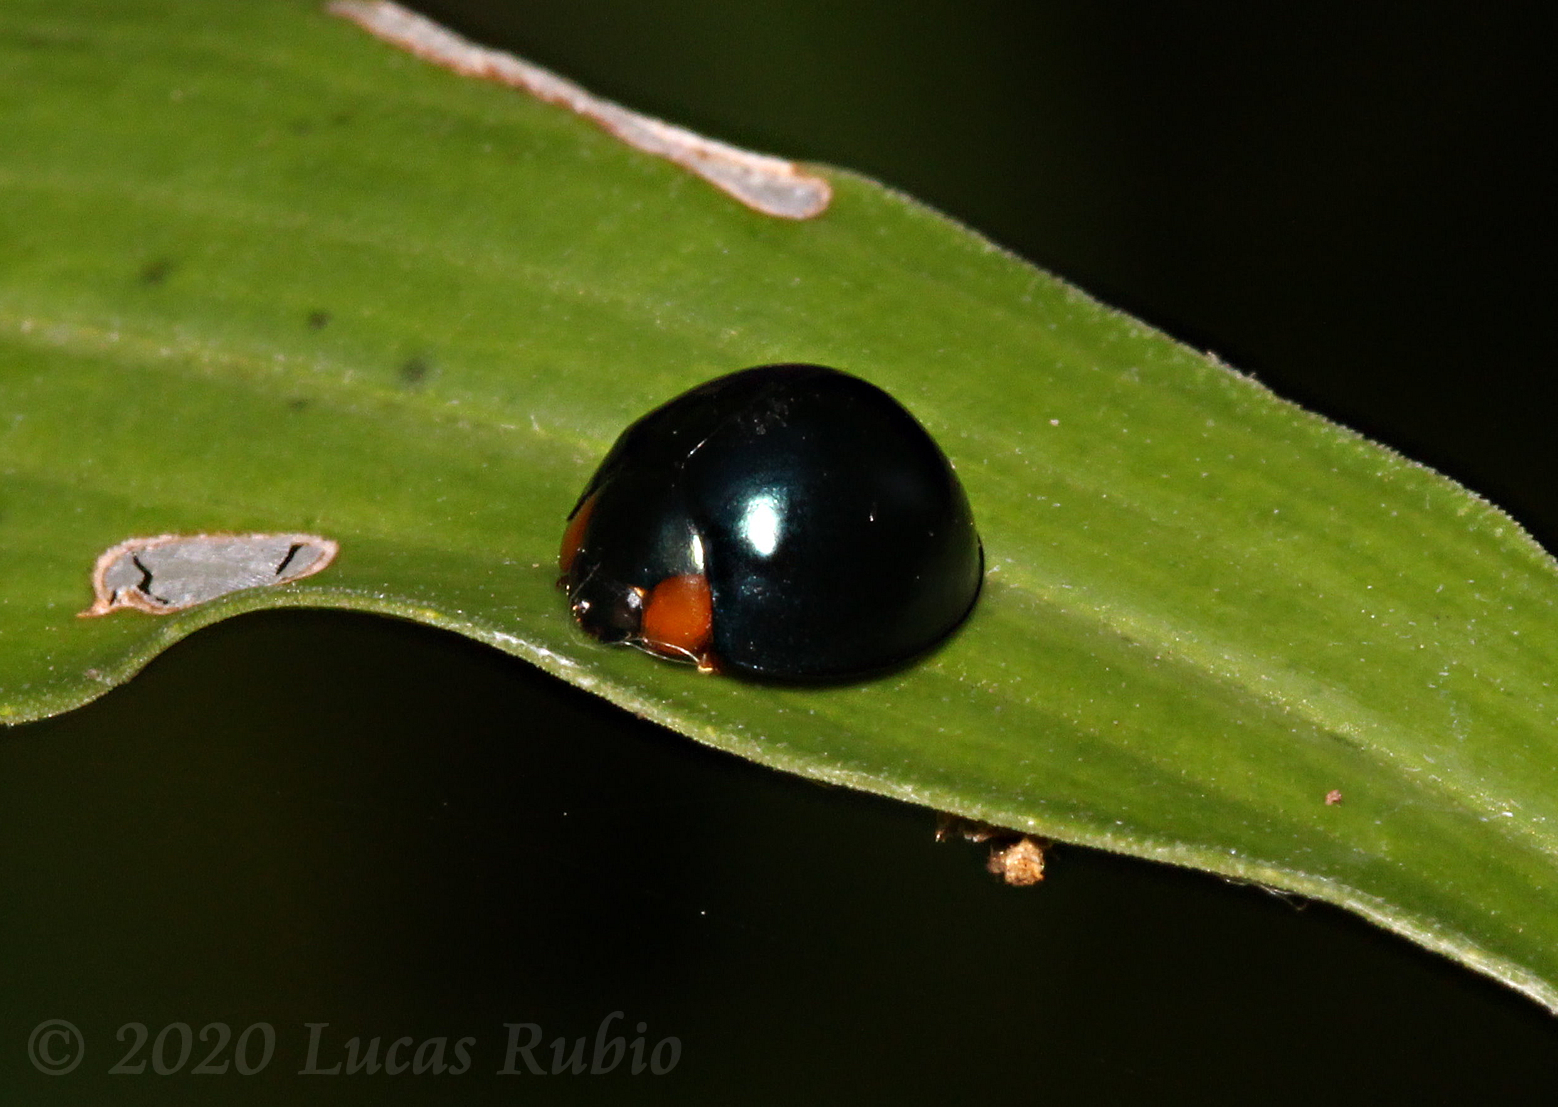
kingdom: Animalia
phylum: Arthropoda
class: Insecta
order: Coleoptera
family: Coccinellidae
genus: Curinus
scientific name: Curinus coeruleus
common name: Ladybird beetle
